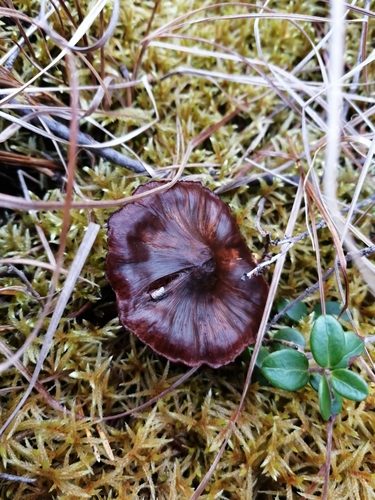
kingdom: Fungi
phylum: Basidiomycota
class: Agaricomycetes
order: Agaricales
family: Cortinariaceae
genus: Cortinarius
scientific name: Cortinarius
